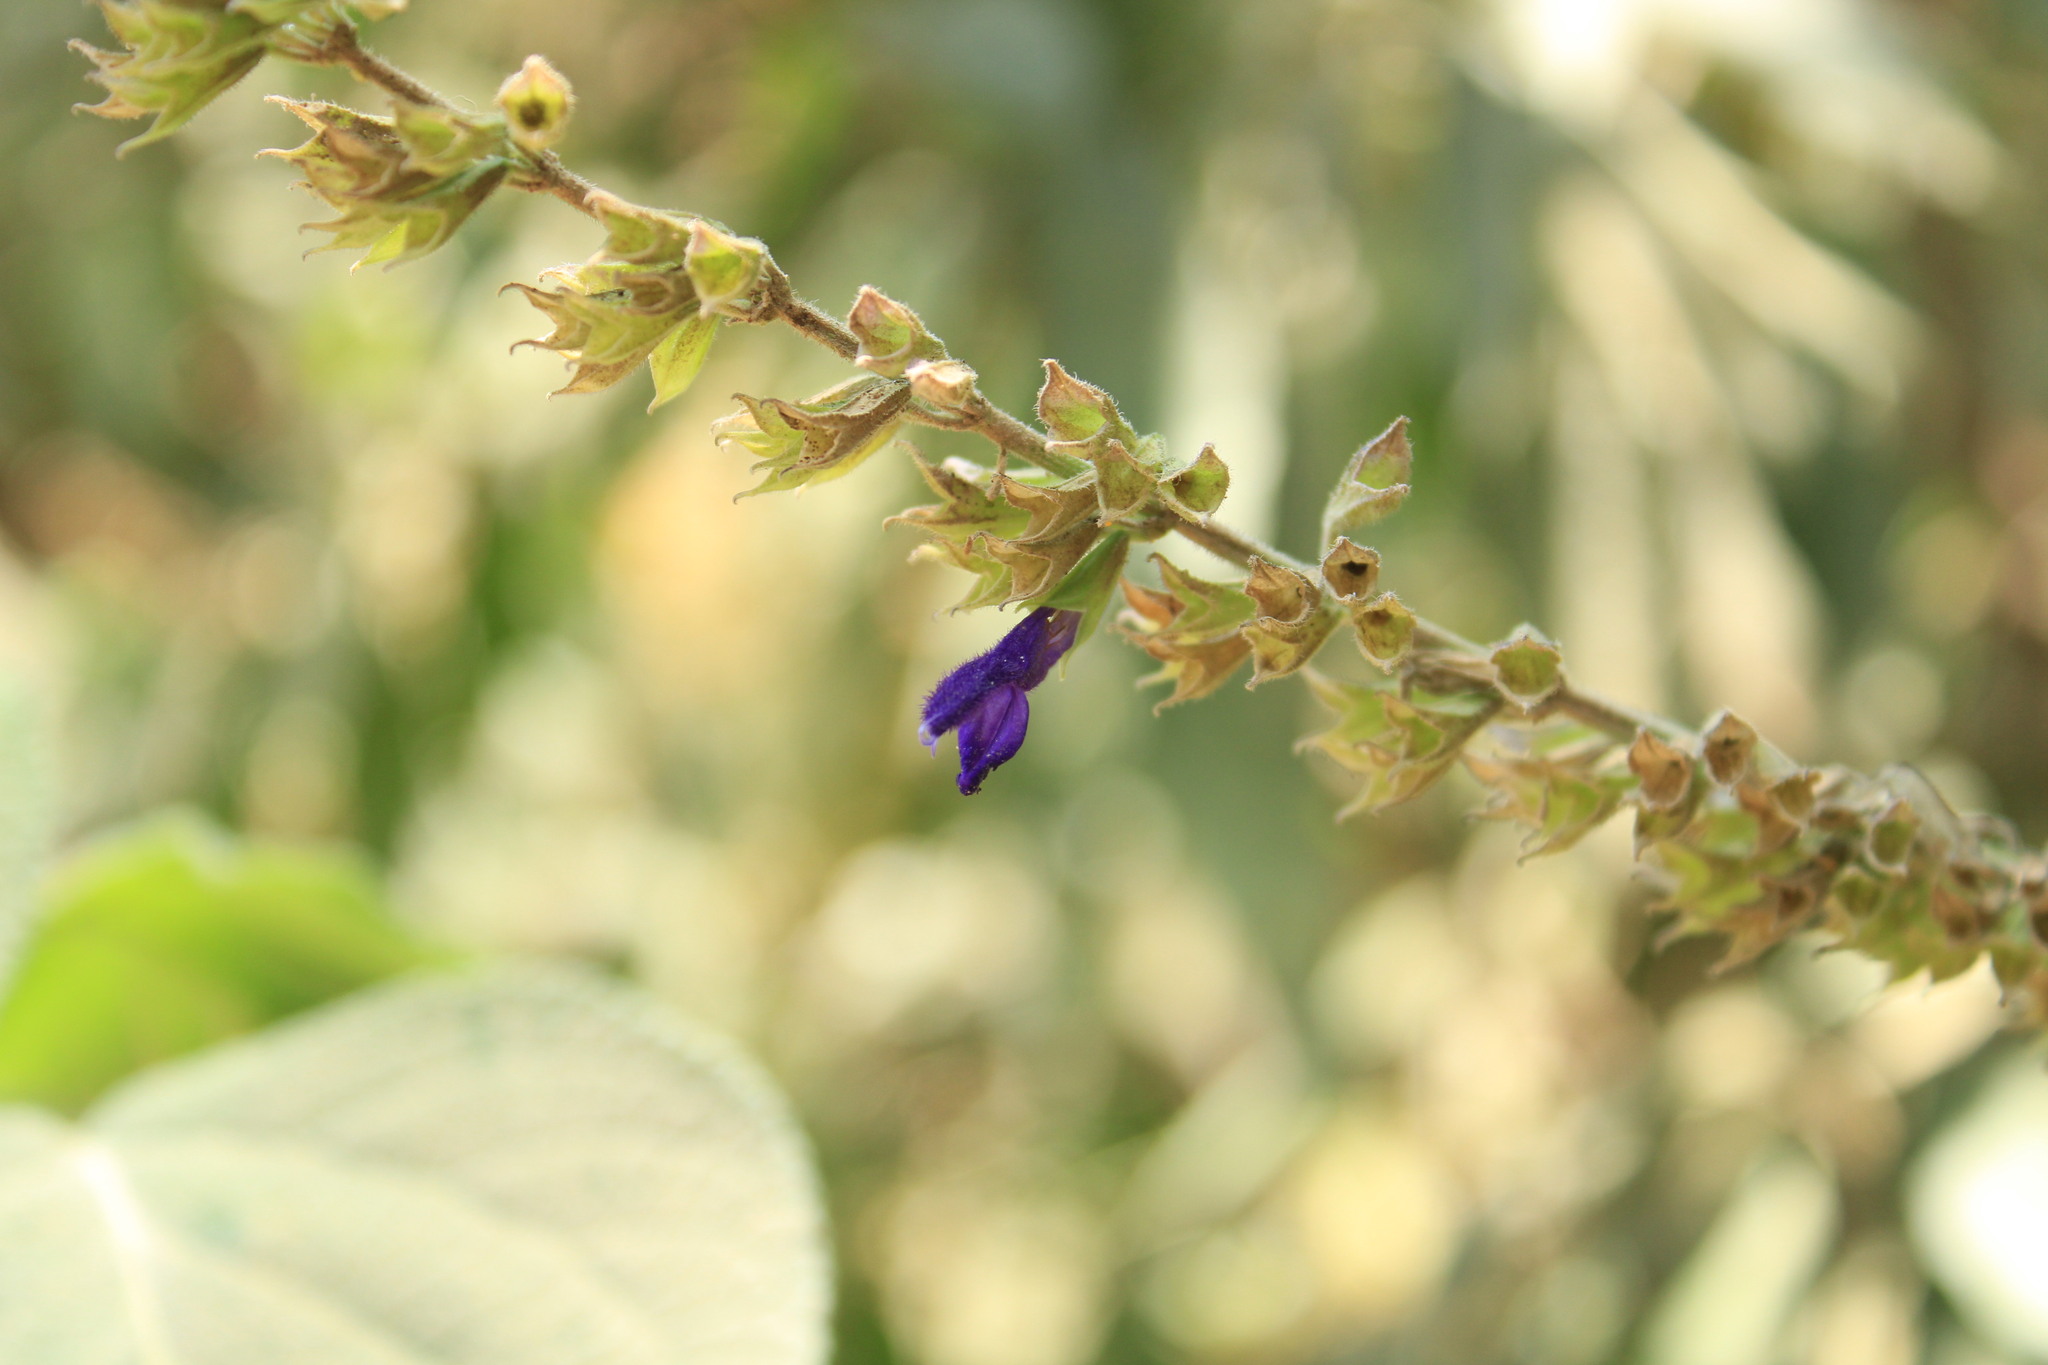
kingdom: Plantae
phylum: Tracheophyta
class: Magnoliopsida
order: Lamiales
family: Lamiaceae
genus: Salvia
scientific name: Salvia mexicana
